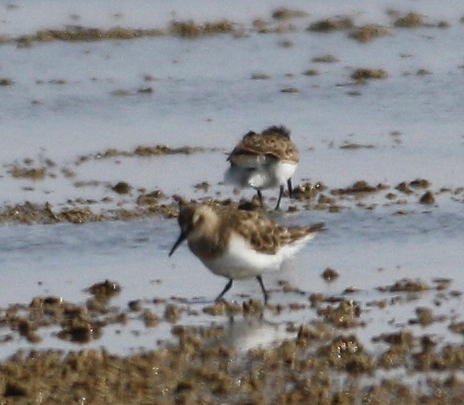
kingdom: Animalia
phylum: Chordata
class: Aves
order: Charadriiformes
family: Scolopacidae
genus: Calidris
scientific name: Calidris bairdii
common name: Baird's sandpiper
